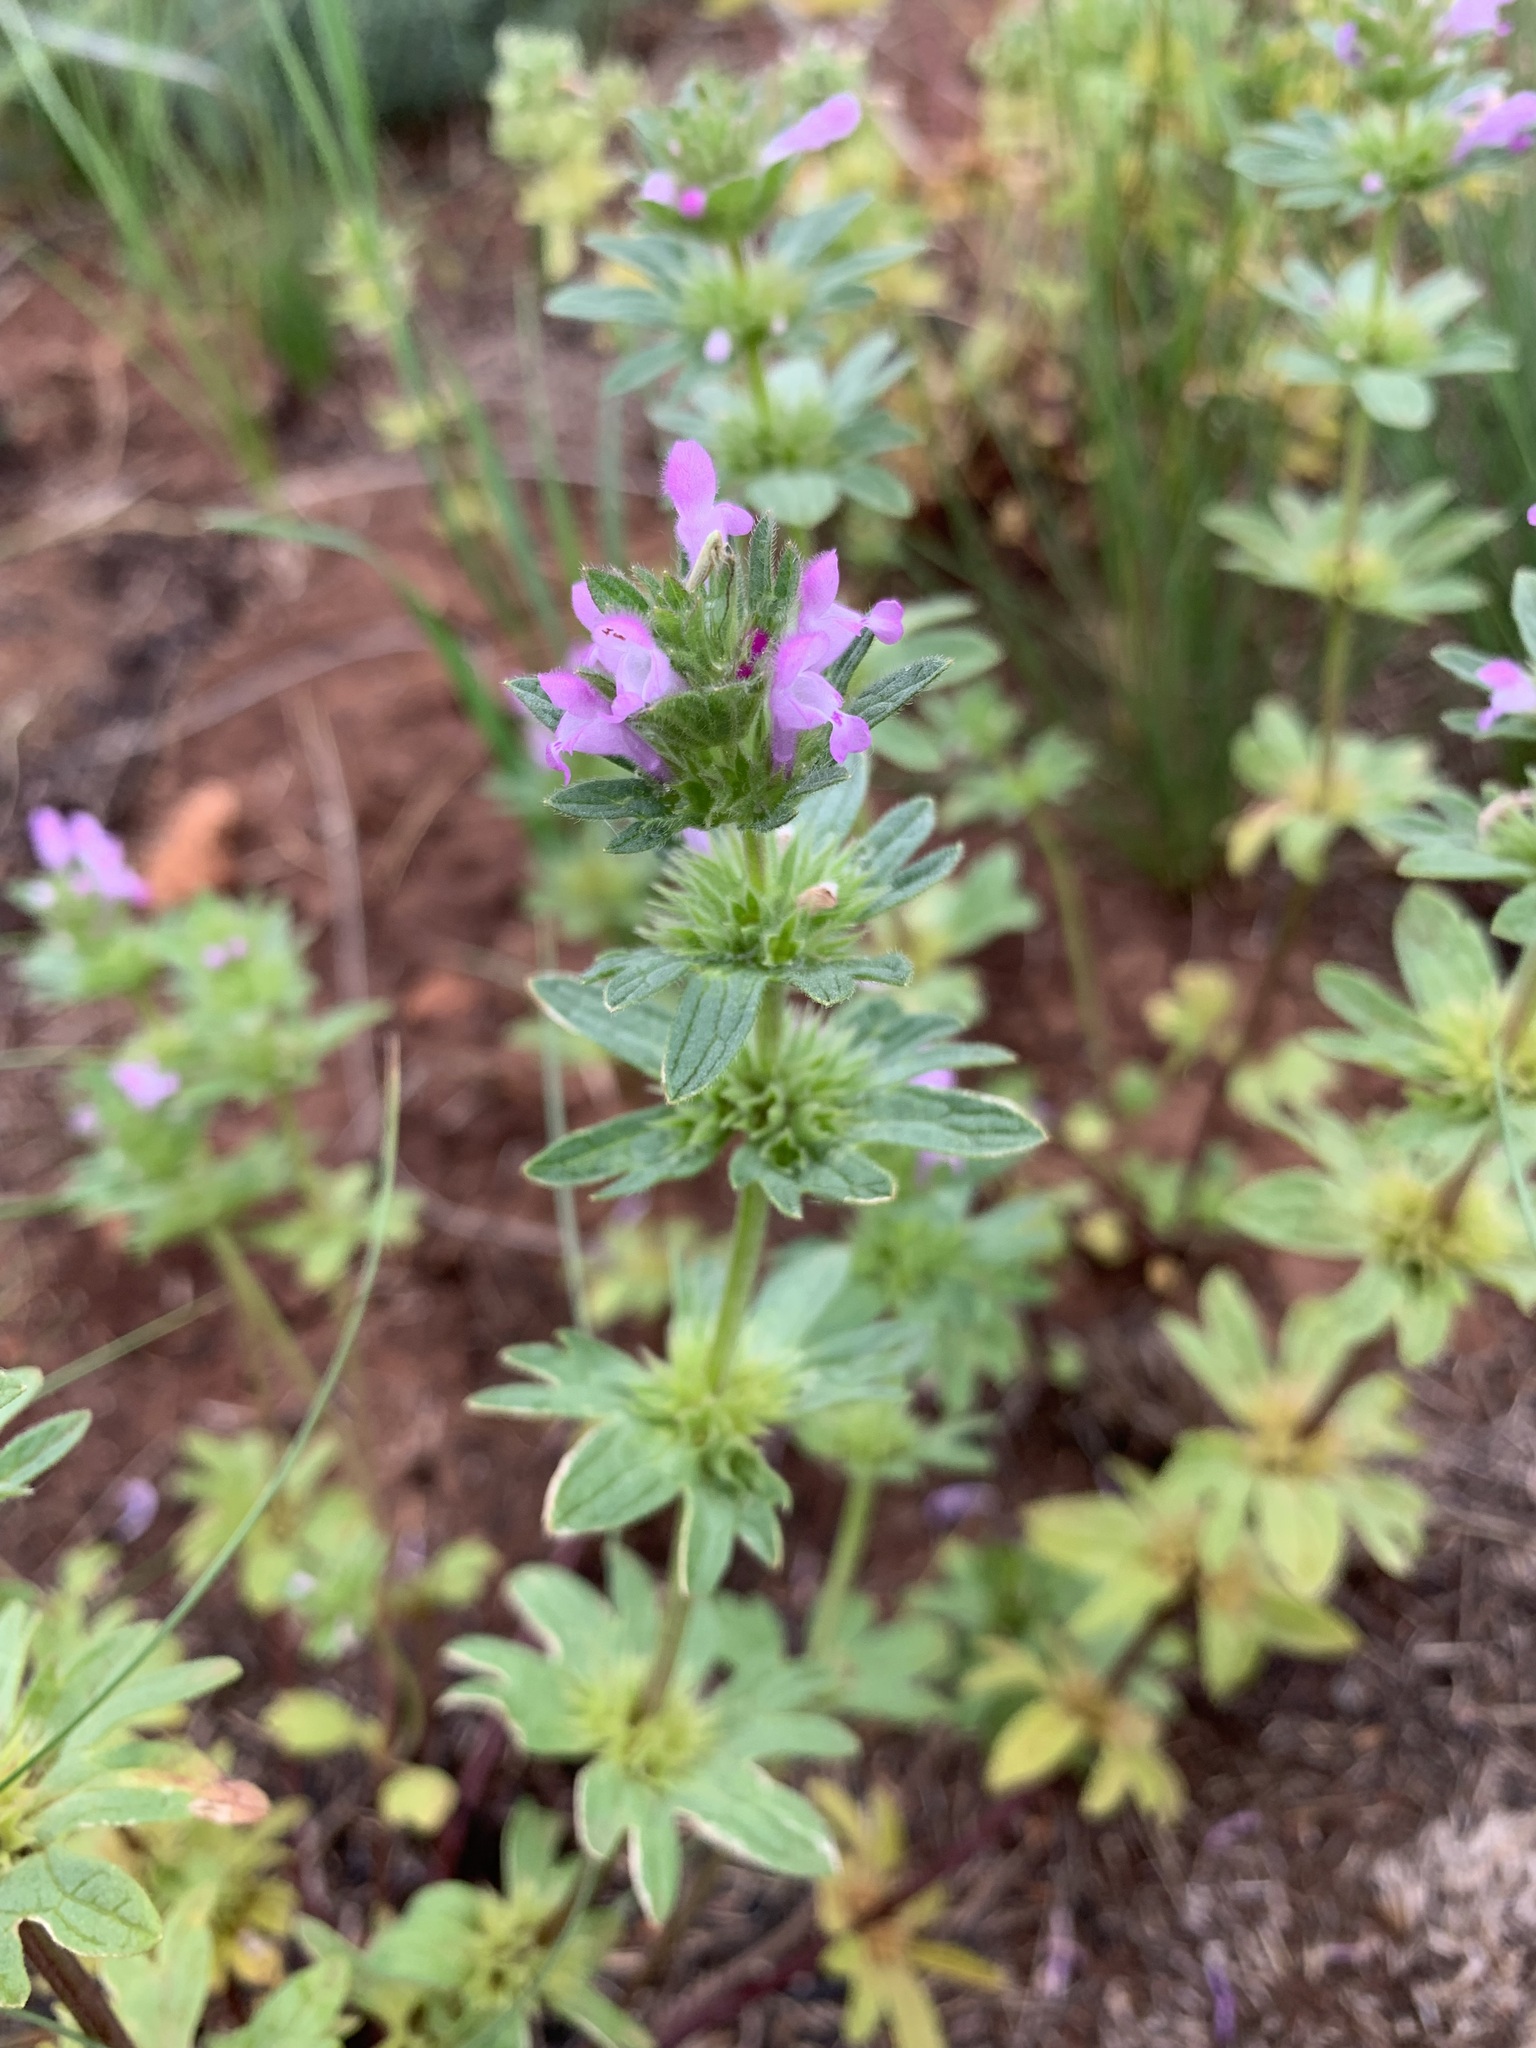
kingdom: Plantae
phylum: Tracheophyta
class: Magnoliopsida
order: Lamiales
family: Lamiaceae
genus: Lamium
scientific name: Lamium amplexicaule
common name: Henbit dead-nettle
